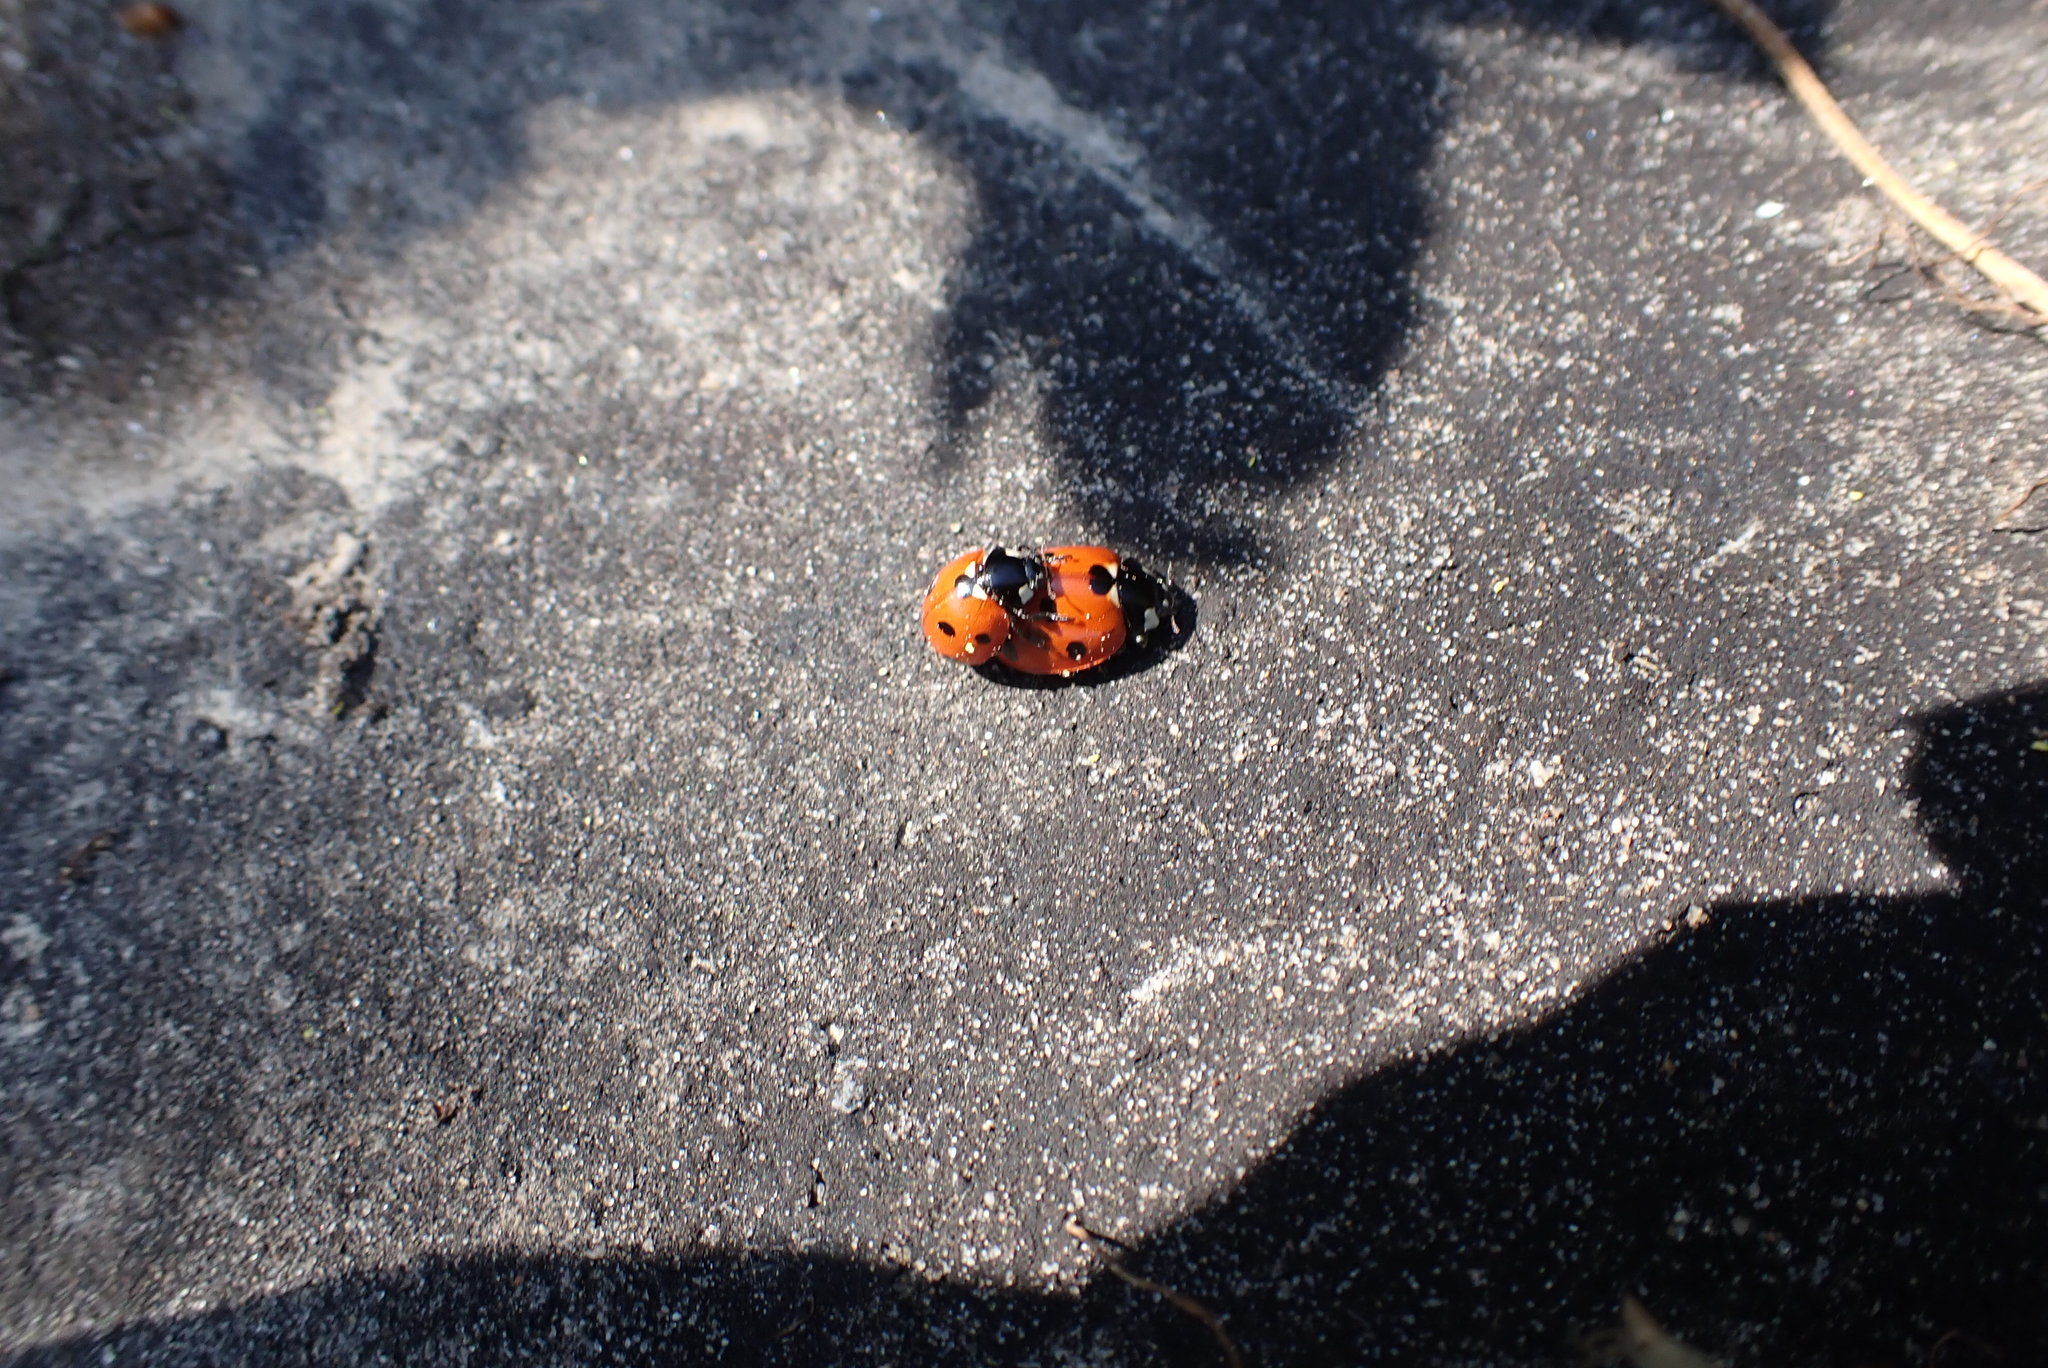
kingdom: Animalia
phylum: Arthropoda
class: Insecta
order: Coleoptera
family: Coccinellidae
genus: Coccinella
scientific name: Coccinella septempunctata
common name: Sevenspotted lady beetle
